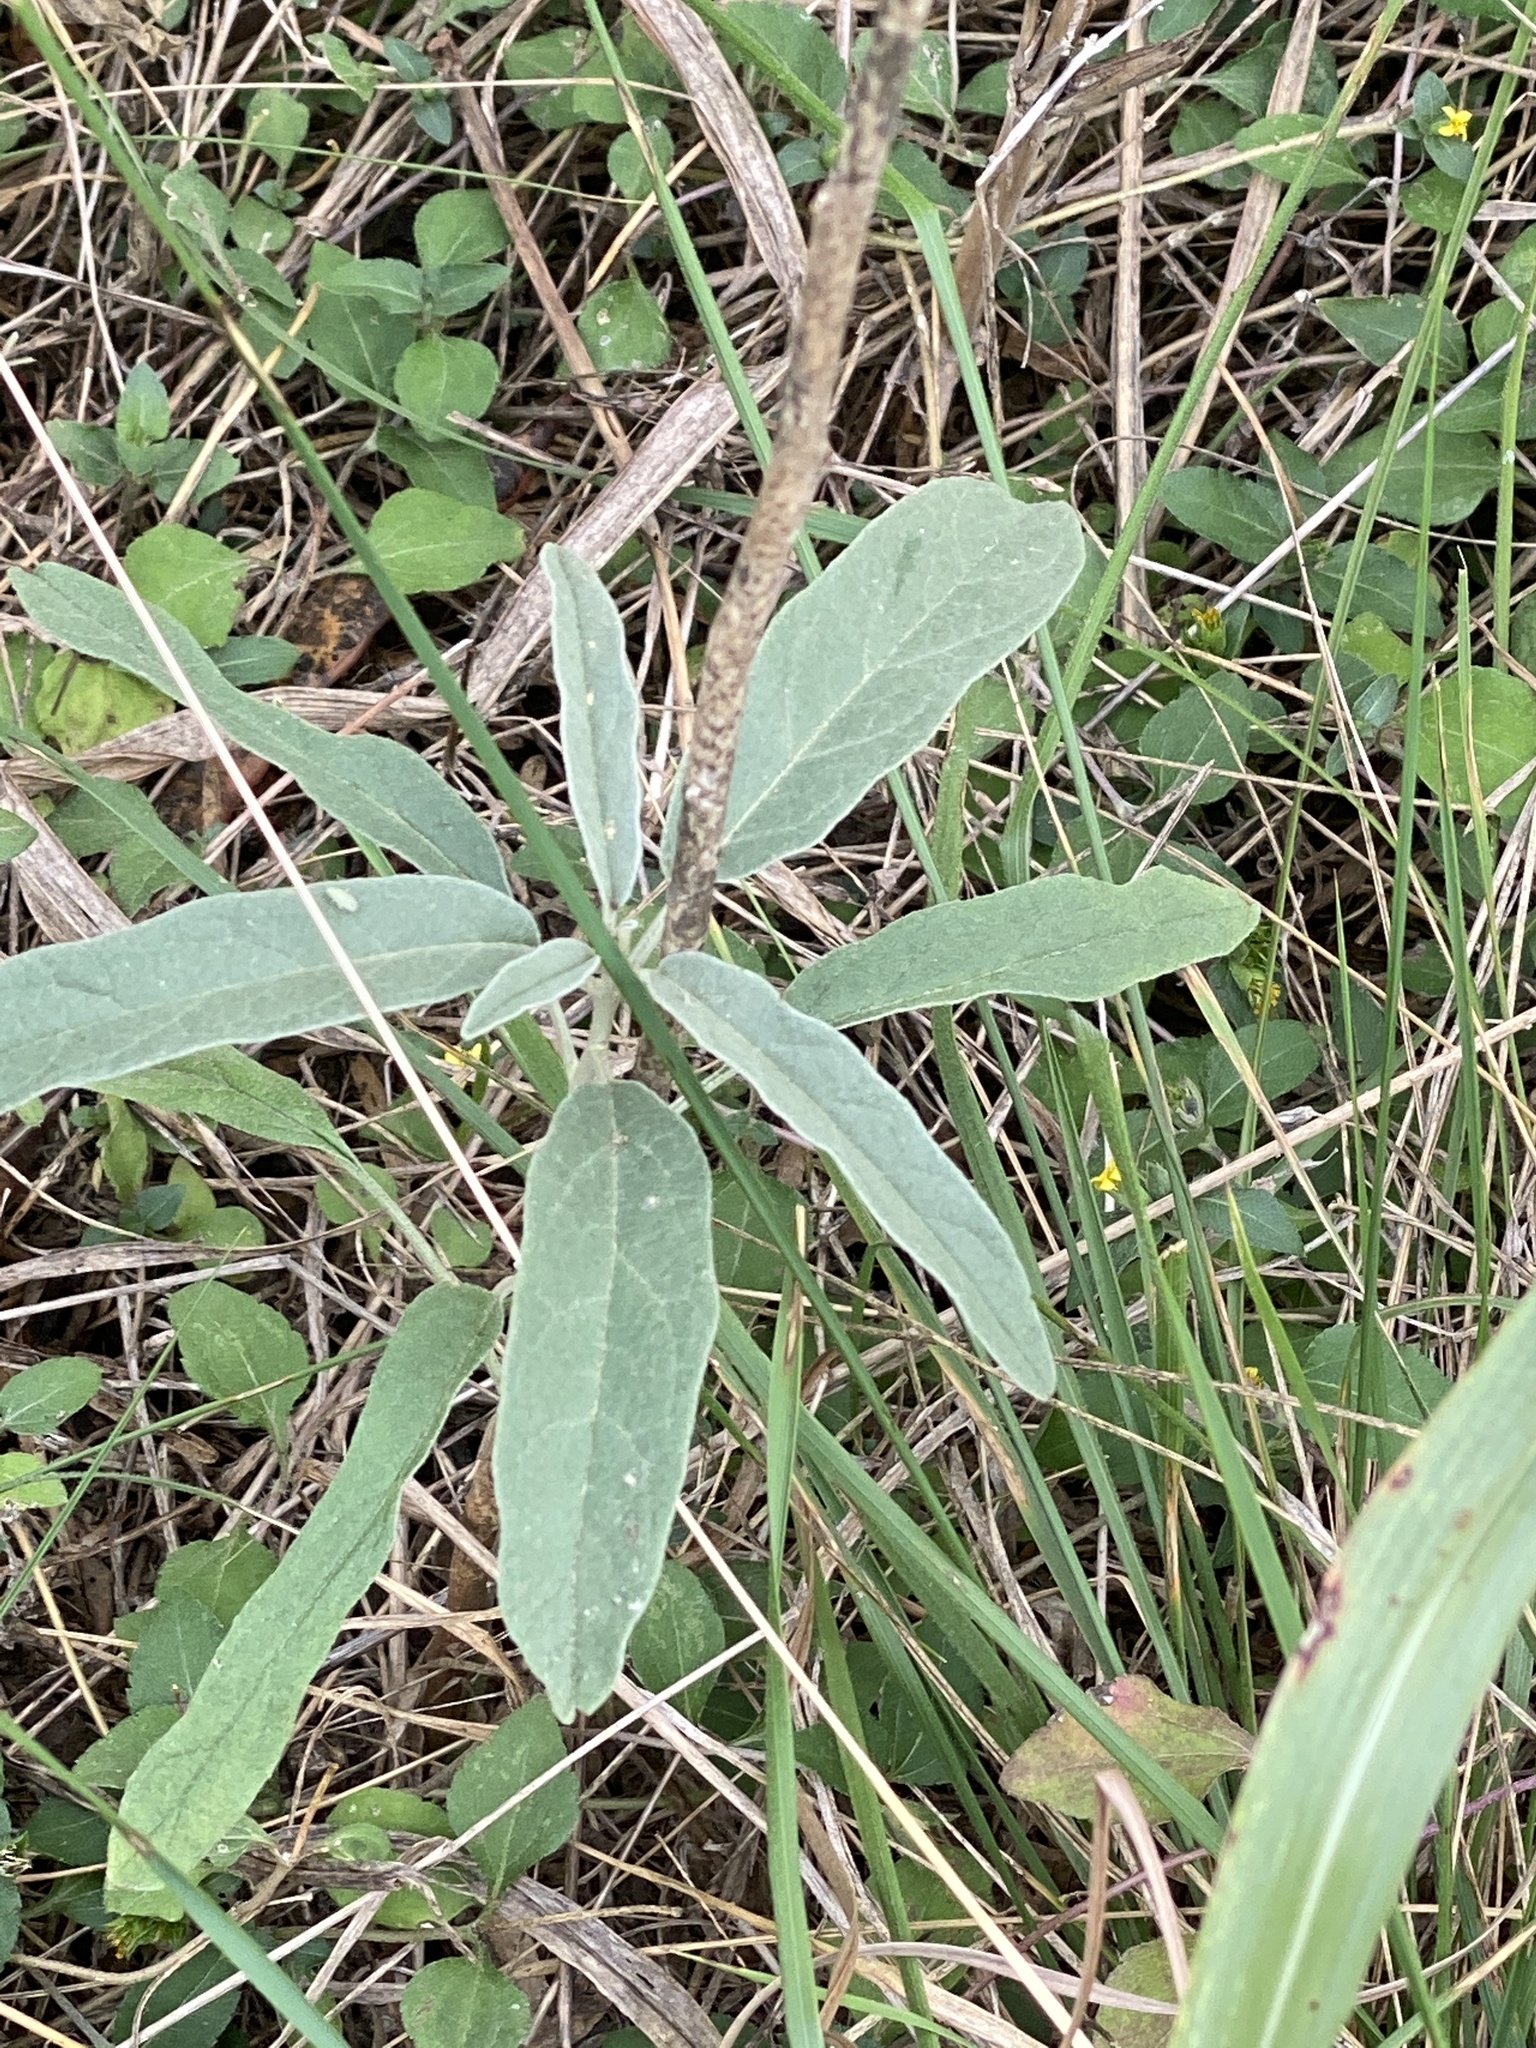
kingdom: Plantae
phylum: Tracheophyta
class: Magnoliopsida
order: Solanales
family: Solanaceae
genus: Solanum
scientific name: Solanum elaeagnifolium
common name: Silverleaf nightshade
